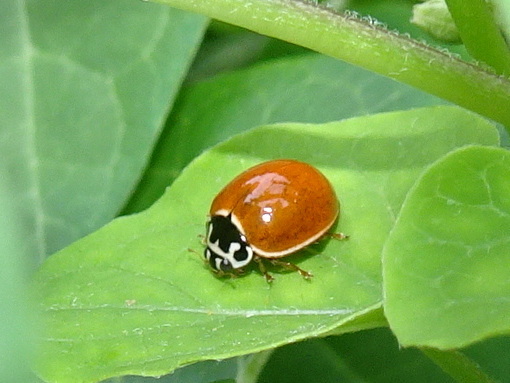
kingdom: Animalia
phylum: Arthropoda
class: Insecta
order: Coleoptera
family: Coccinellidae
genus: Cycloneda
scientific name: Cycloneda munda
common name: Polished lady beetle
